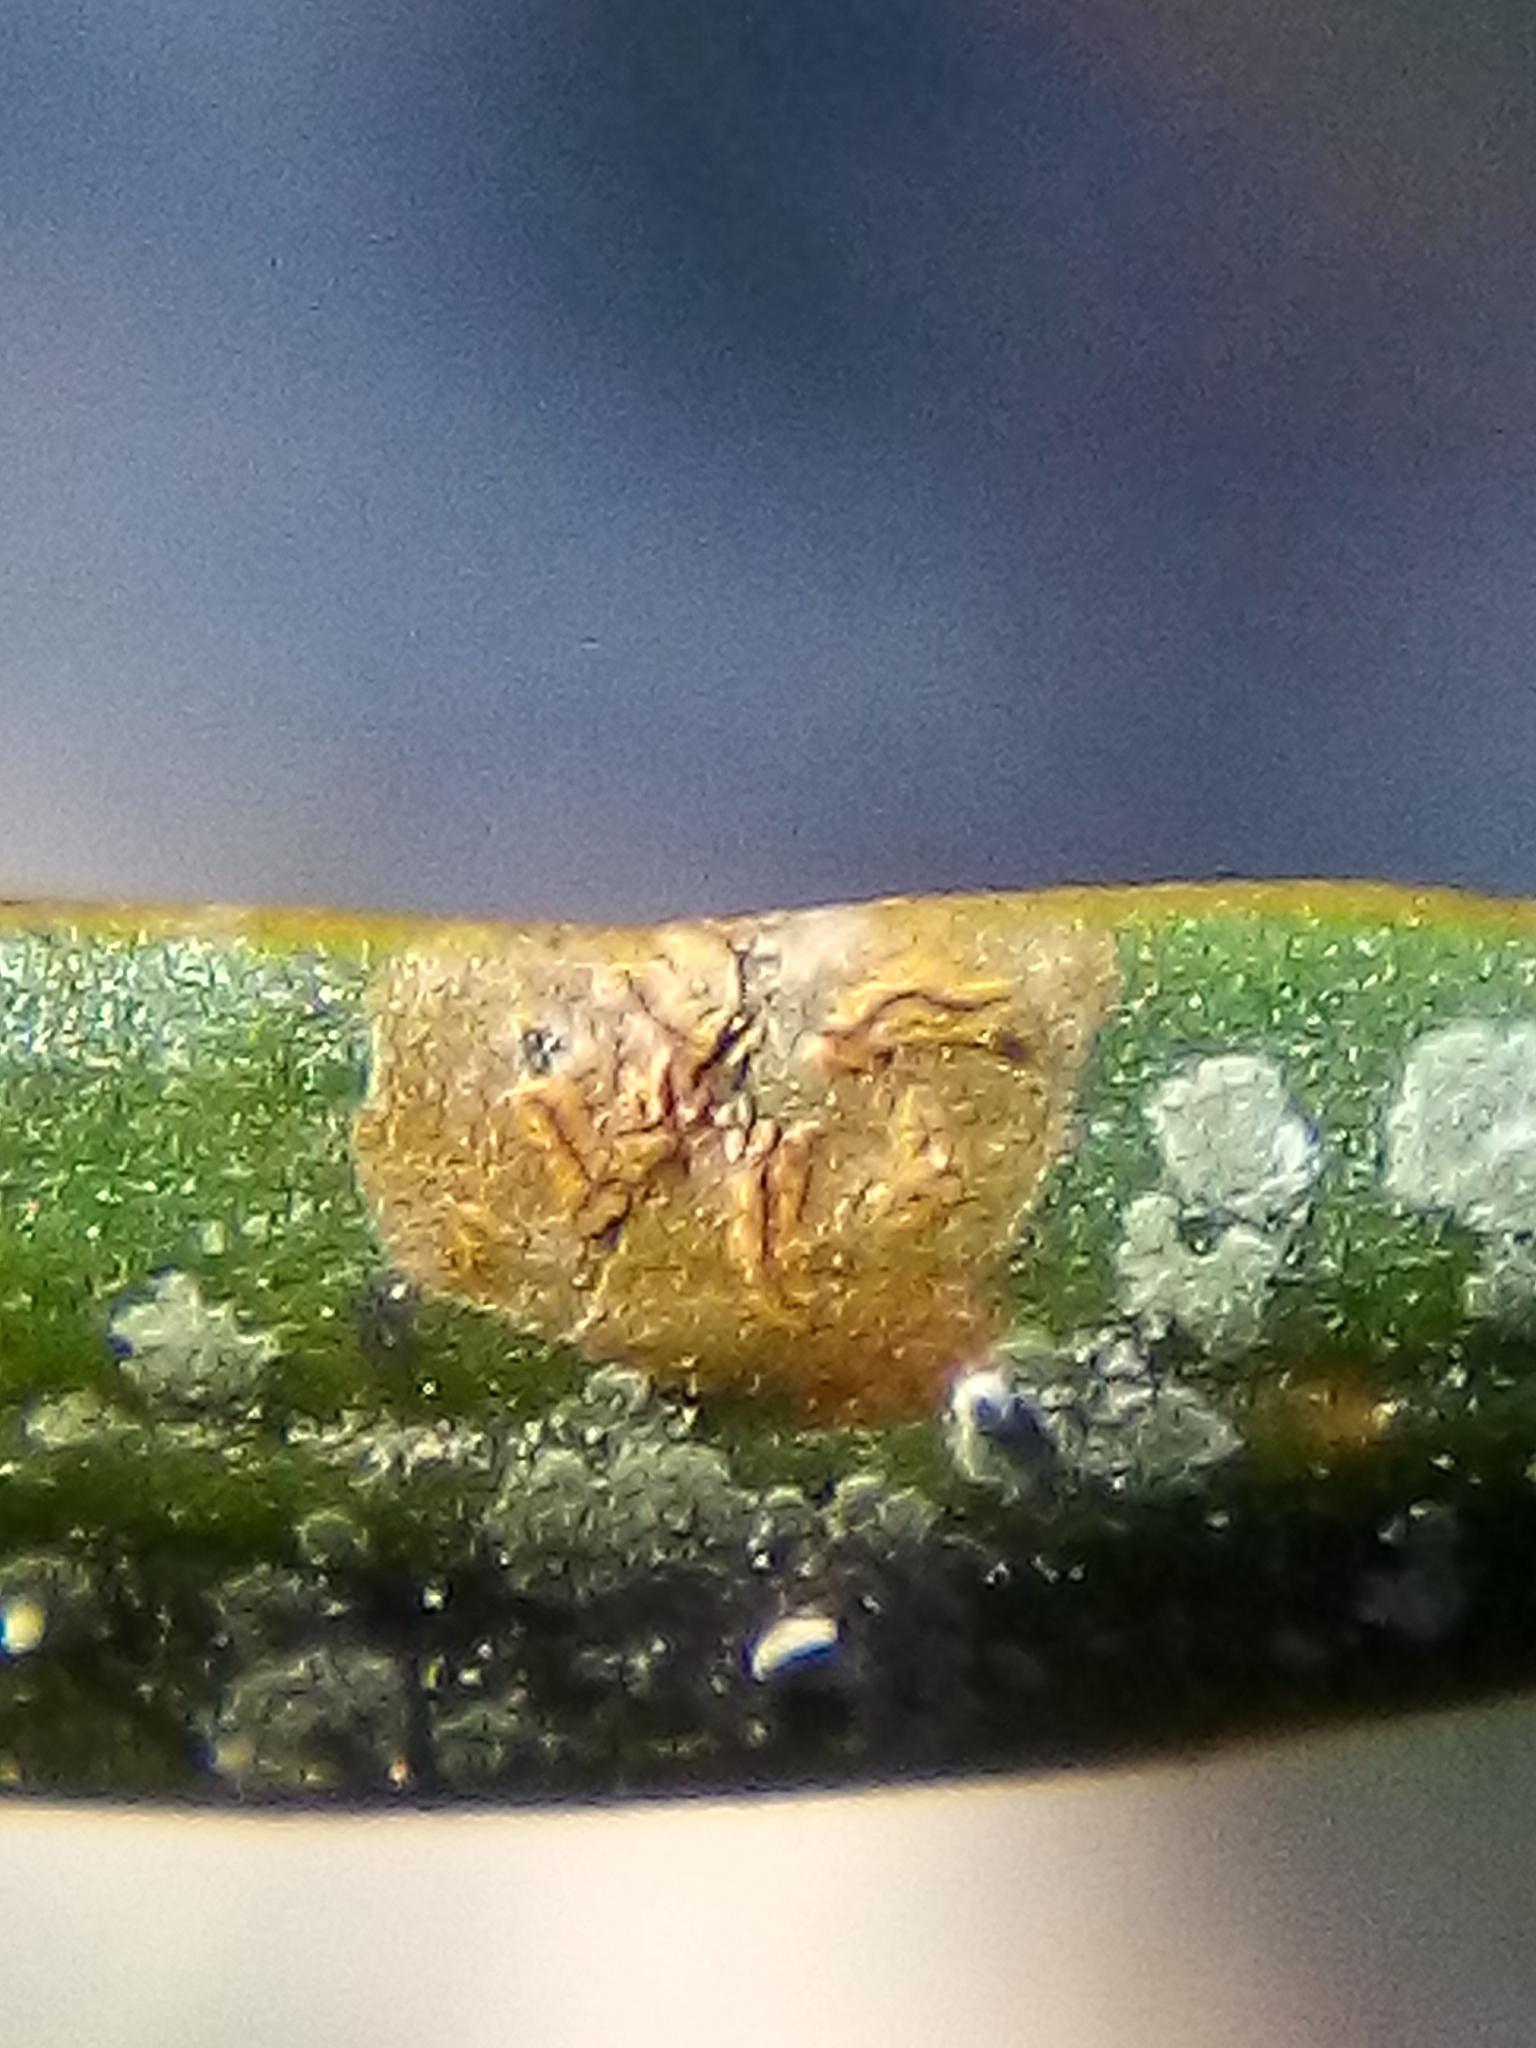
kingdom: Fungi
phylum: Ascomycota
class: Arthoniomycetes
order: Arthoniales
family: Roccellaceae
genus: Enterographa
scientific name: Enterographa bella
